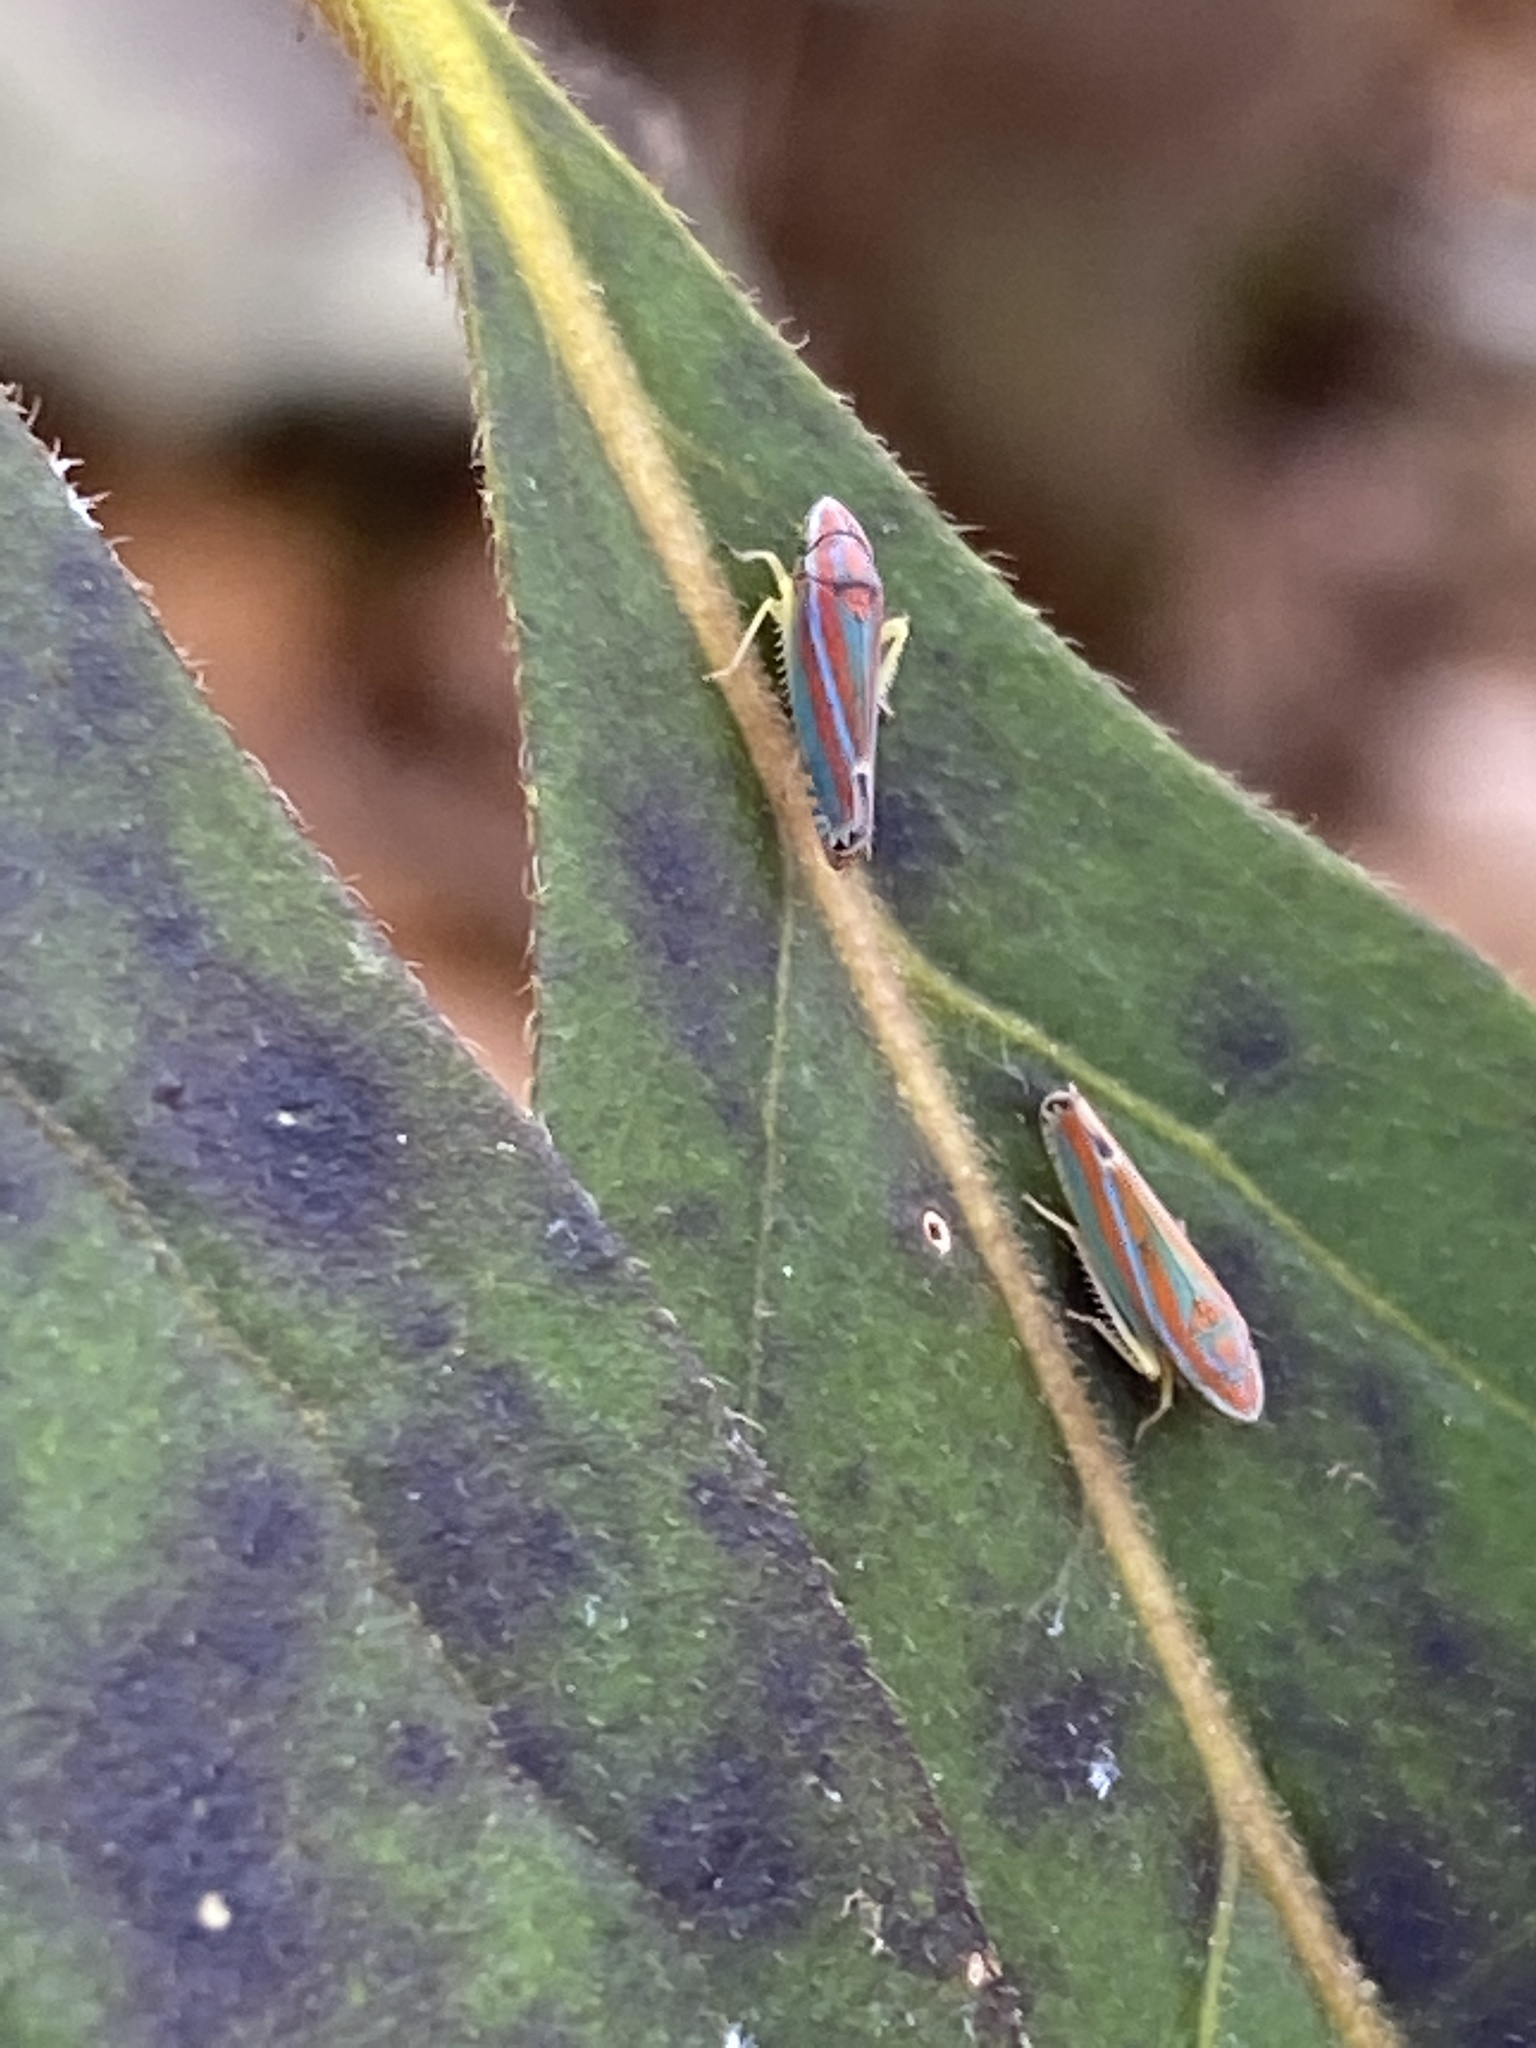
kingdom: Animalia
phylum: Arthropoda
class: Insecta
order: Hemiptera
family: Cicadellidae
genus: Graphocephala
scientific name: Graphocephala versuta
